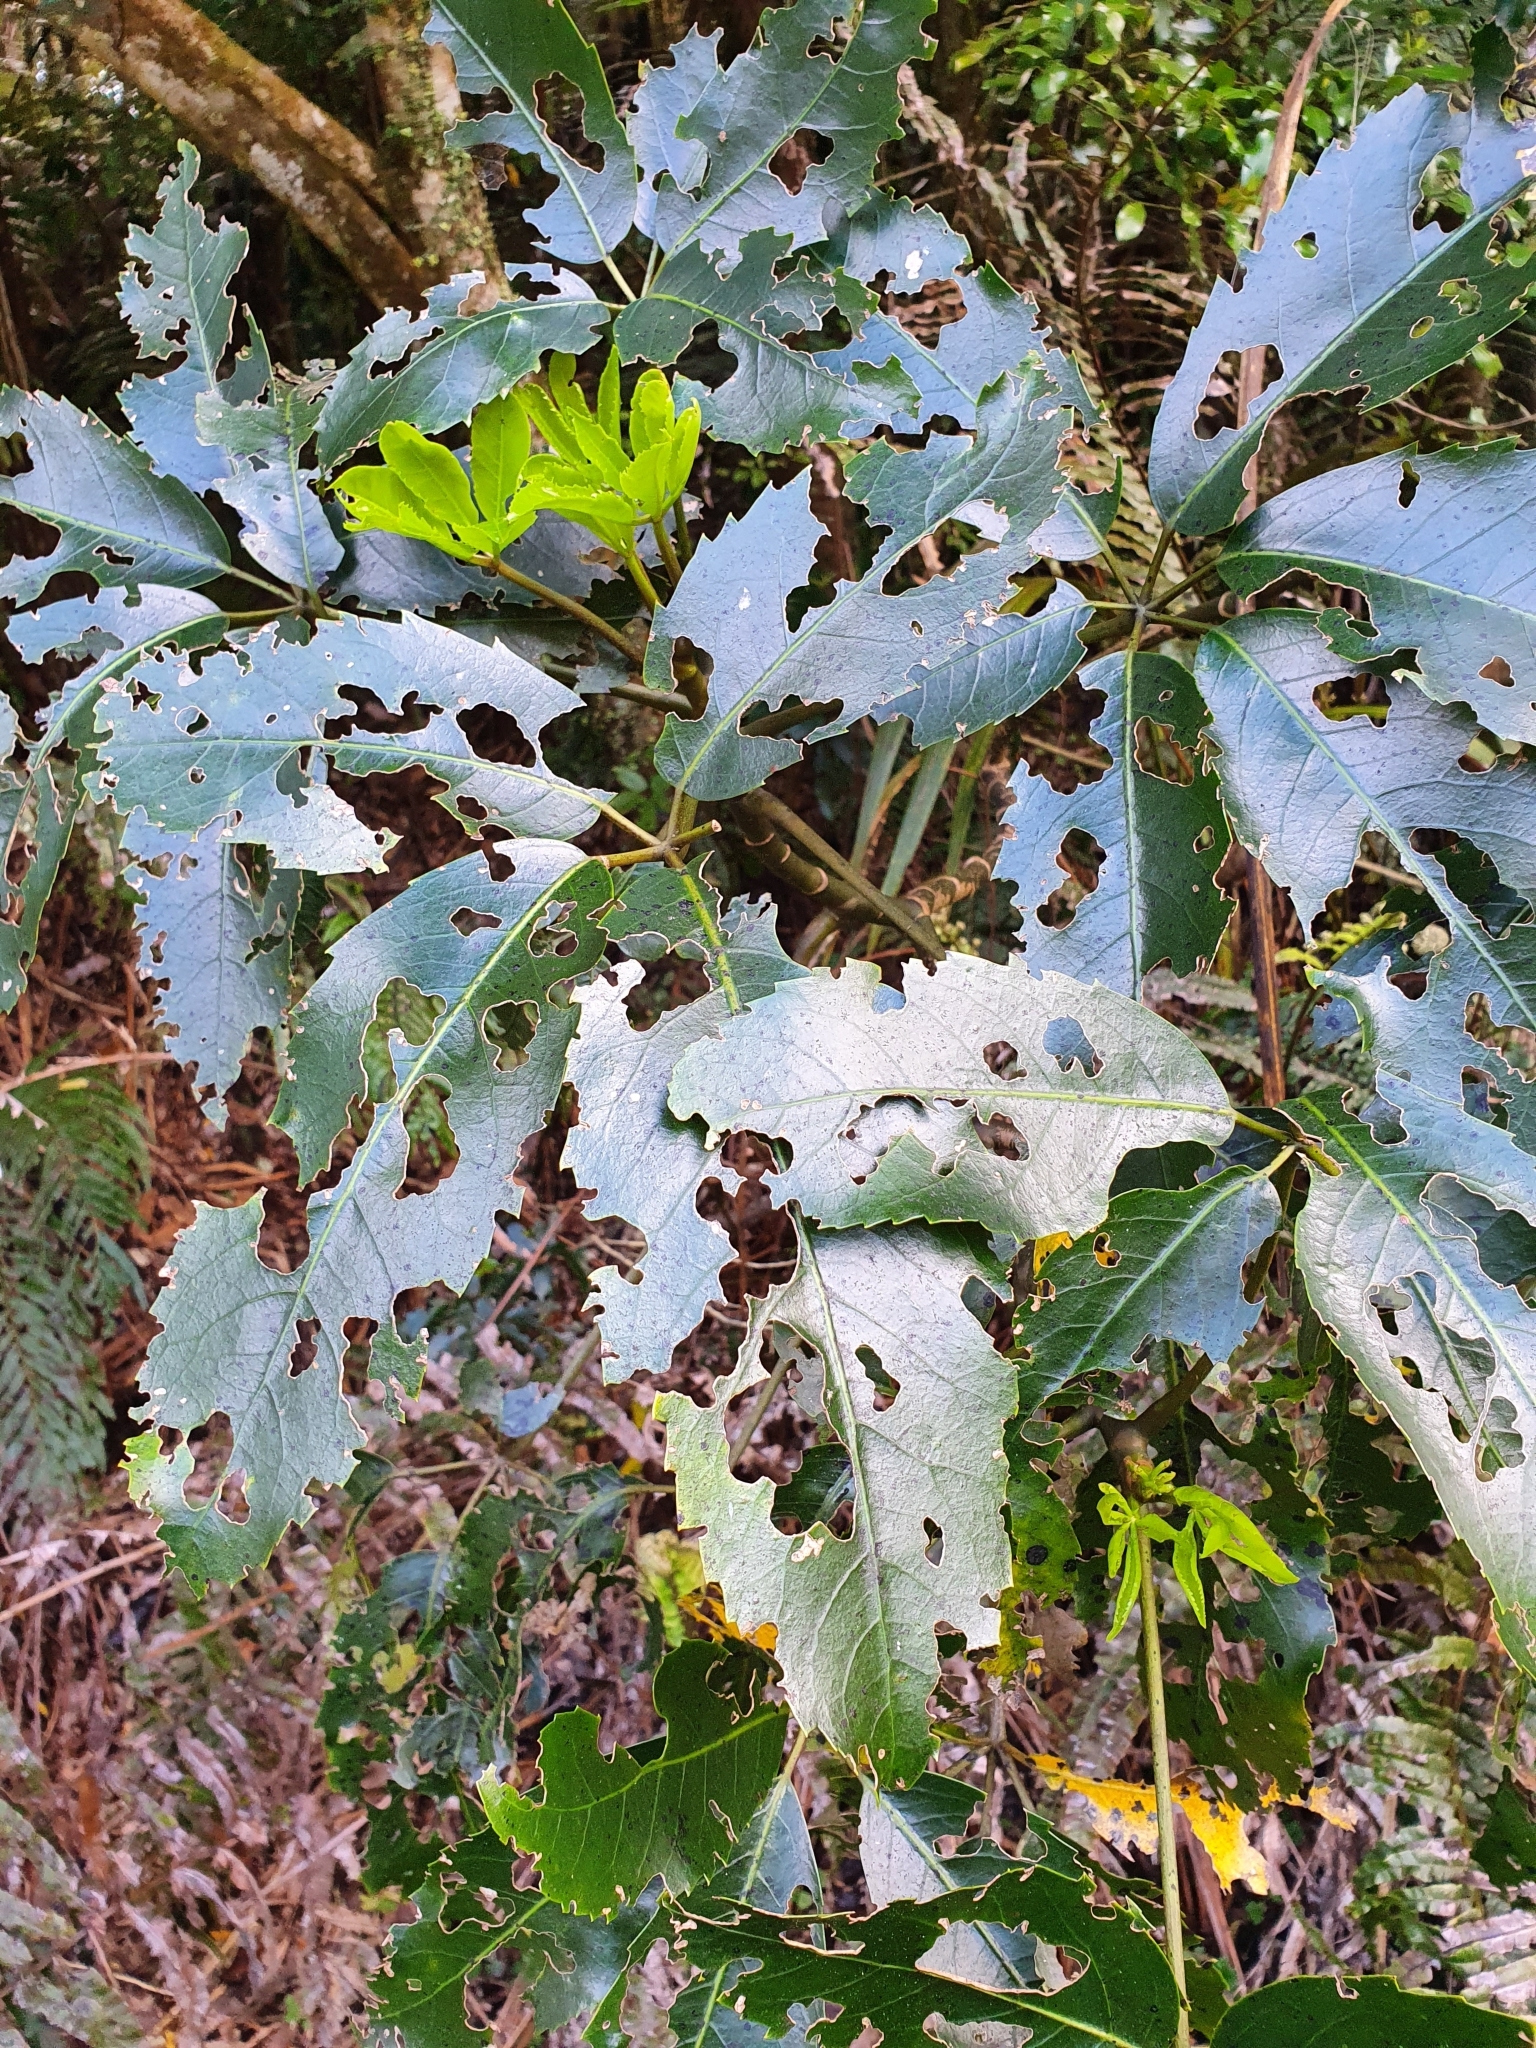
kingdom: Plantae
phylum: Tracheophyta
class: Magnoliopsida
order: Apiales
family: Araliaceae
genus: Neopanax
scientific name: Neopanax arboreus
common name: Five-fingers
